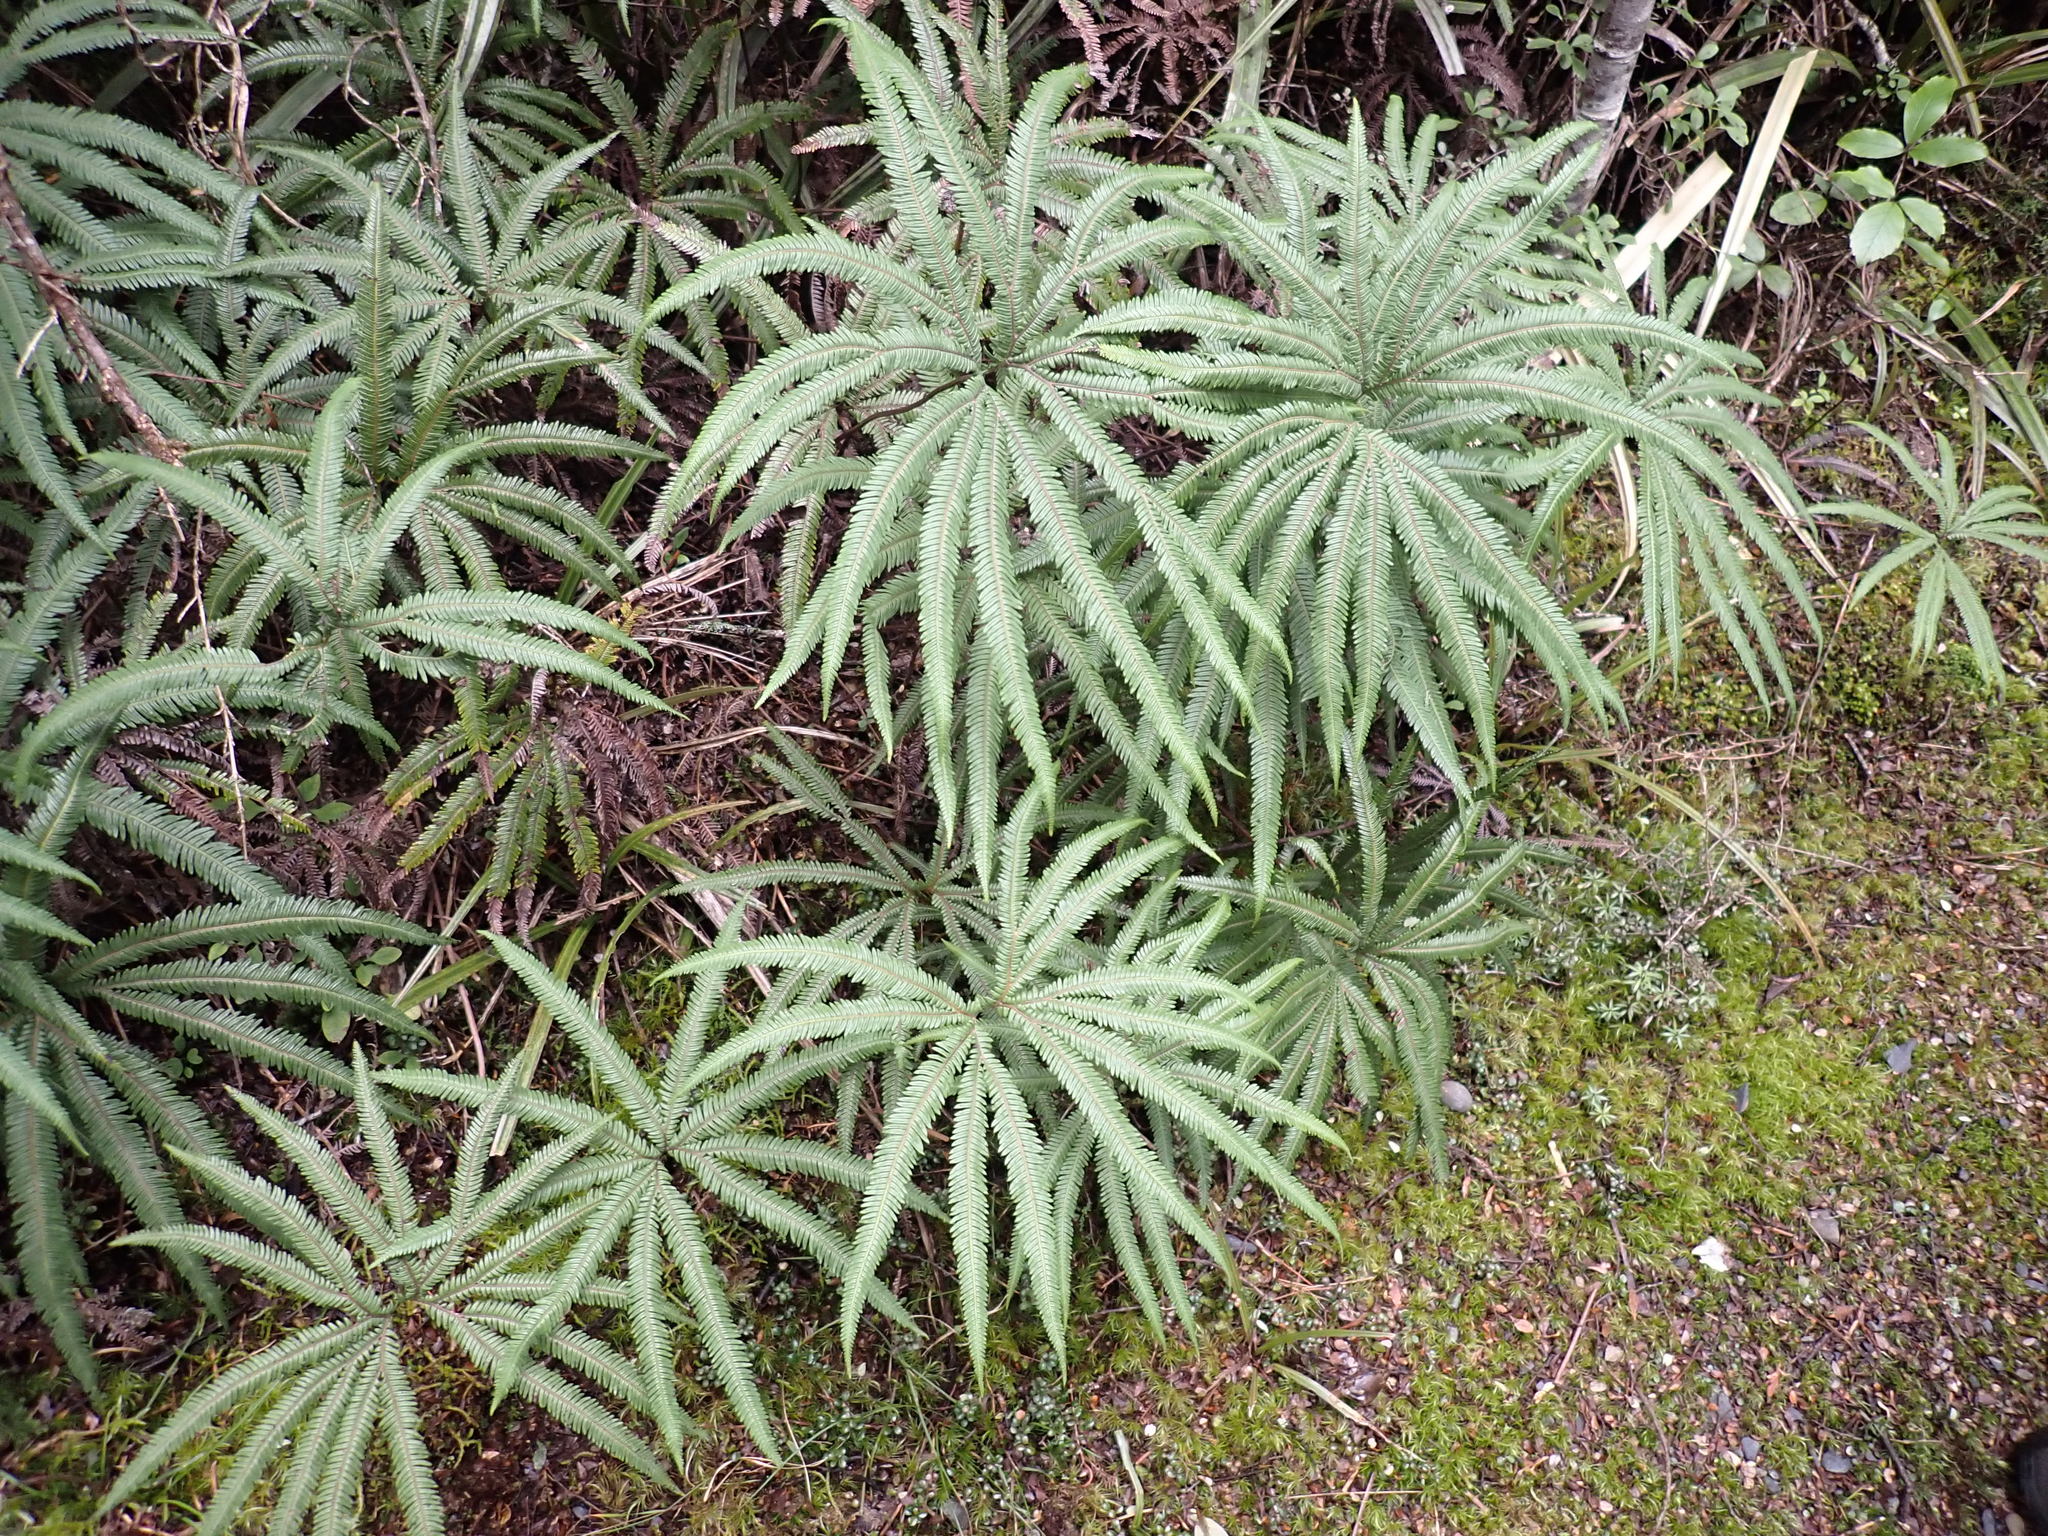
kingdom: Plantae
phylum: Tracheophyta
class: Polypodiopsida
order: Gleicheniales
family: Gleicheniaceae
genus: Sticherus
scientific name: Sticherus cunninghamii
